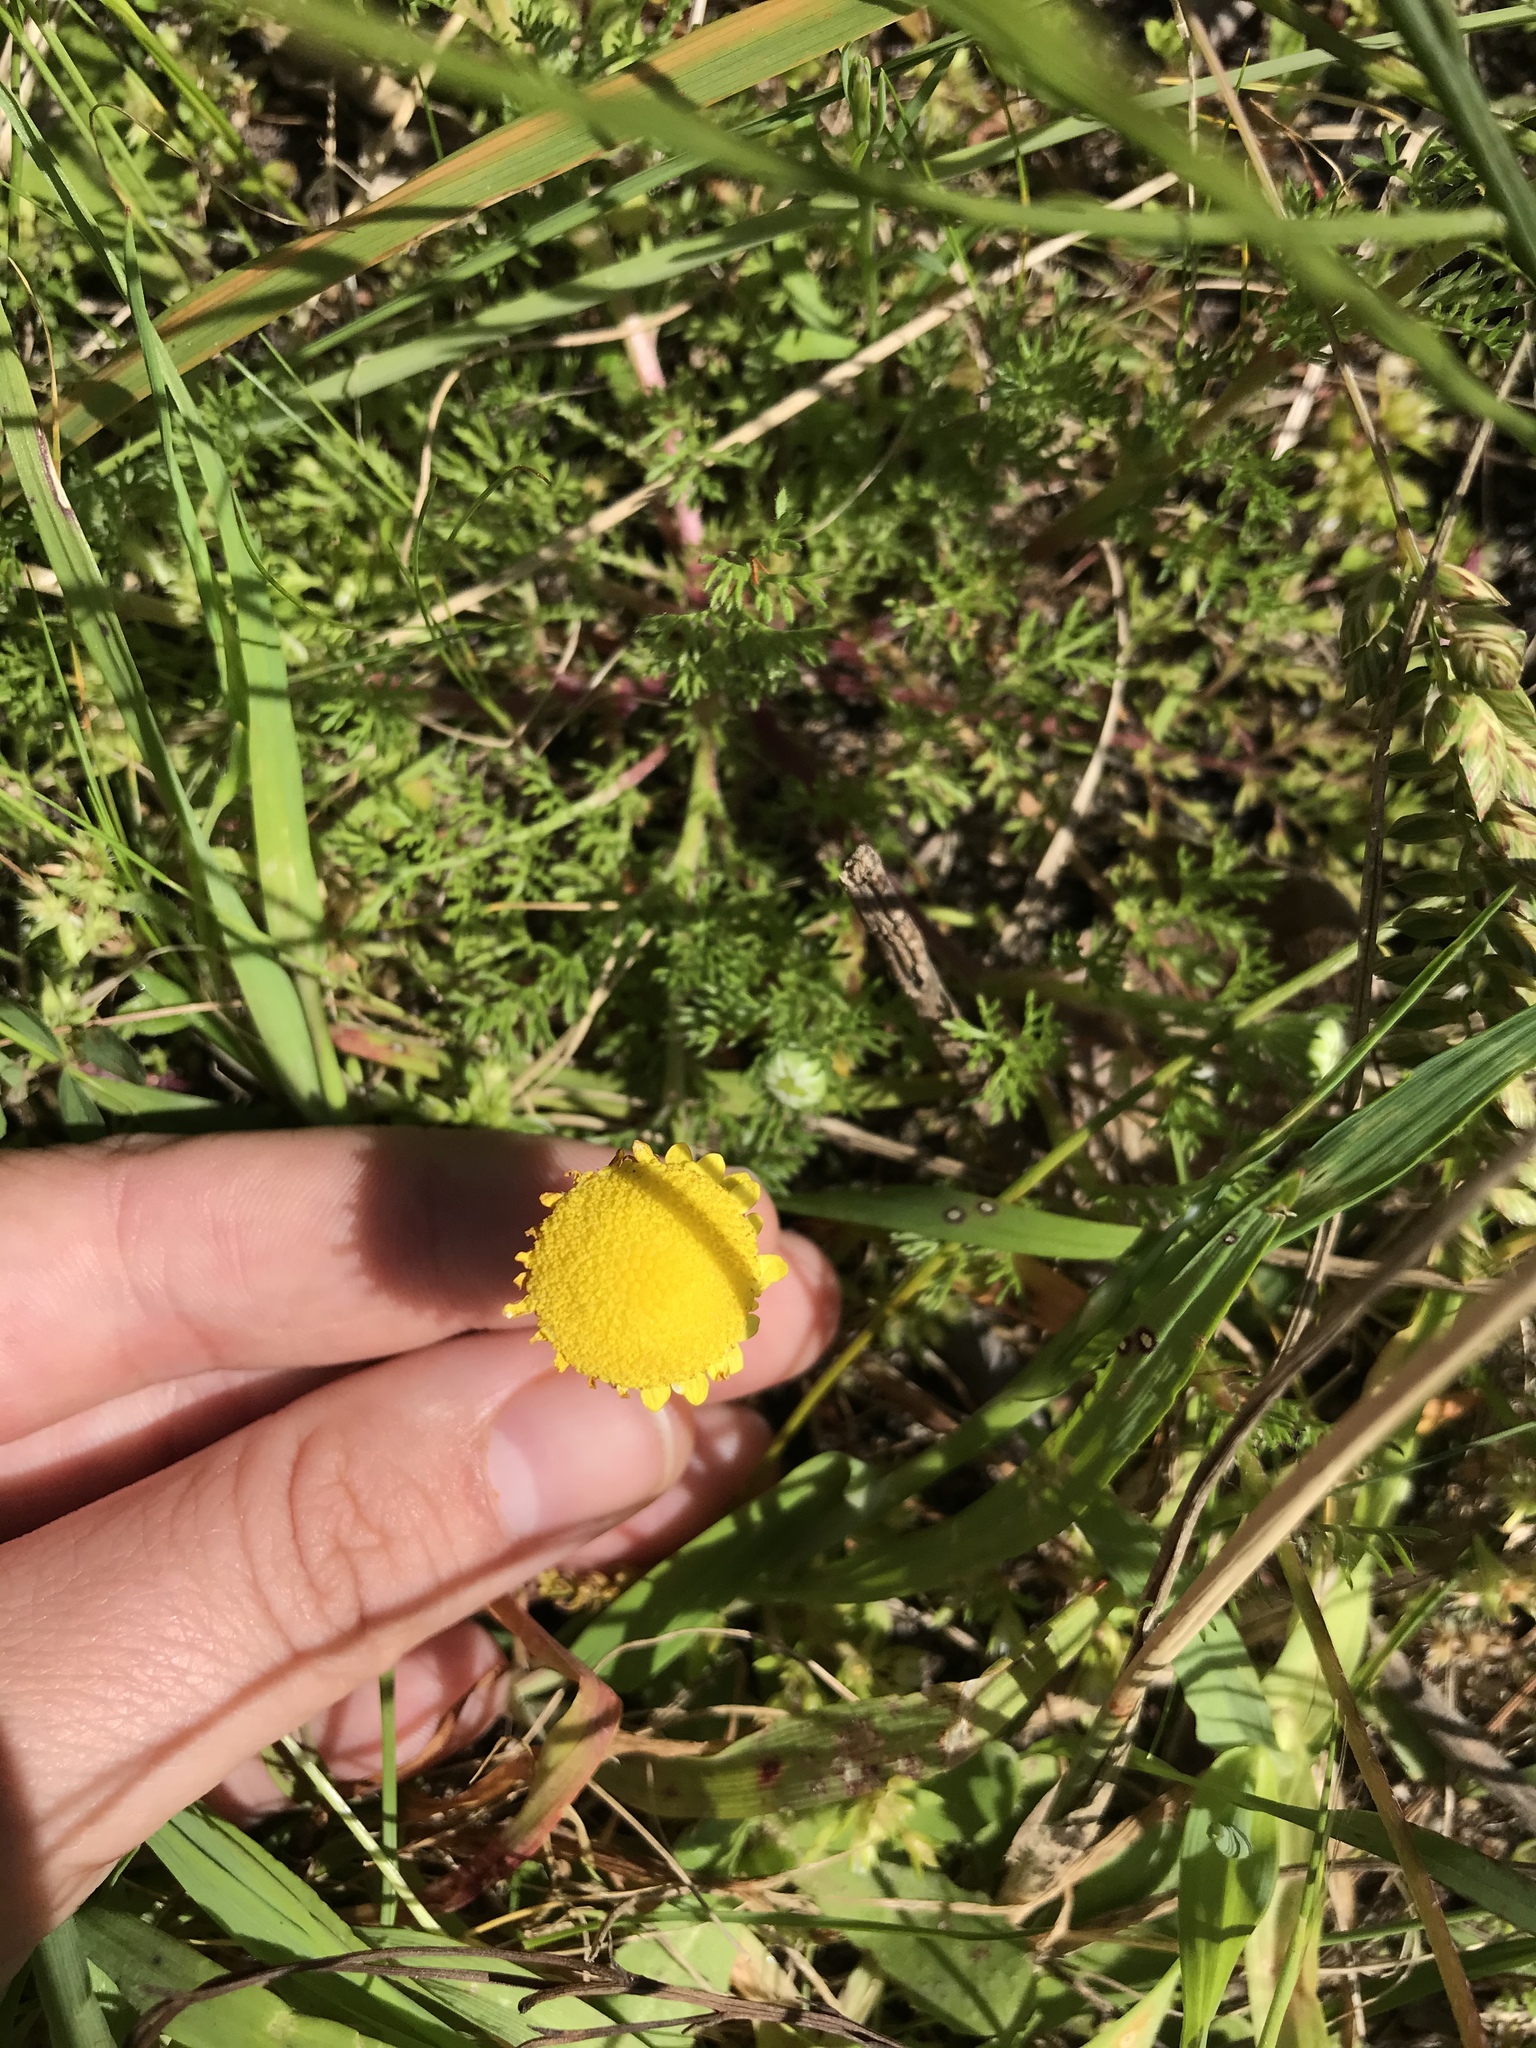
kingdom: Plantae
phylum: Tracheophyta
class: Magnoliopsida
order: Asterales
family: Asteraceae
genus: Cotula
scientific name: Cotula pruinosa
